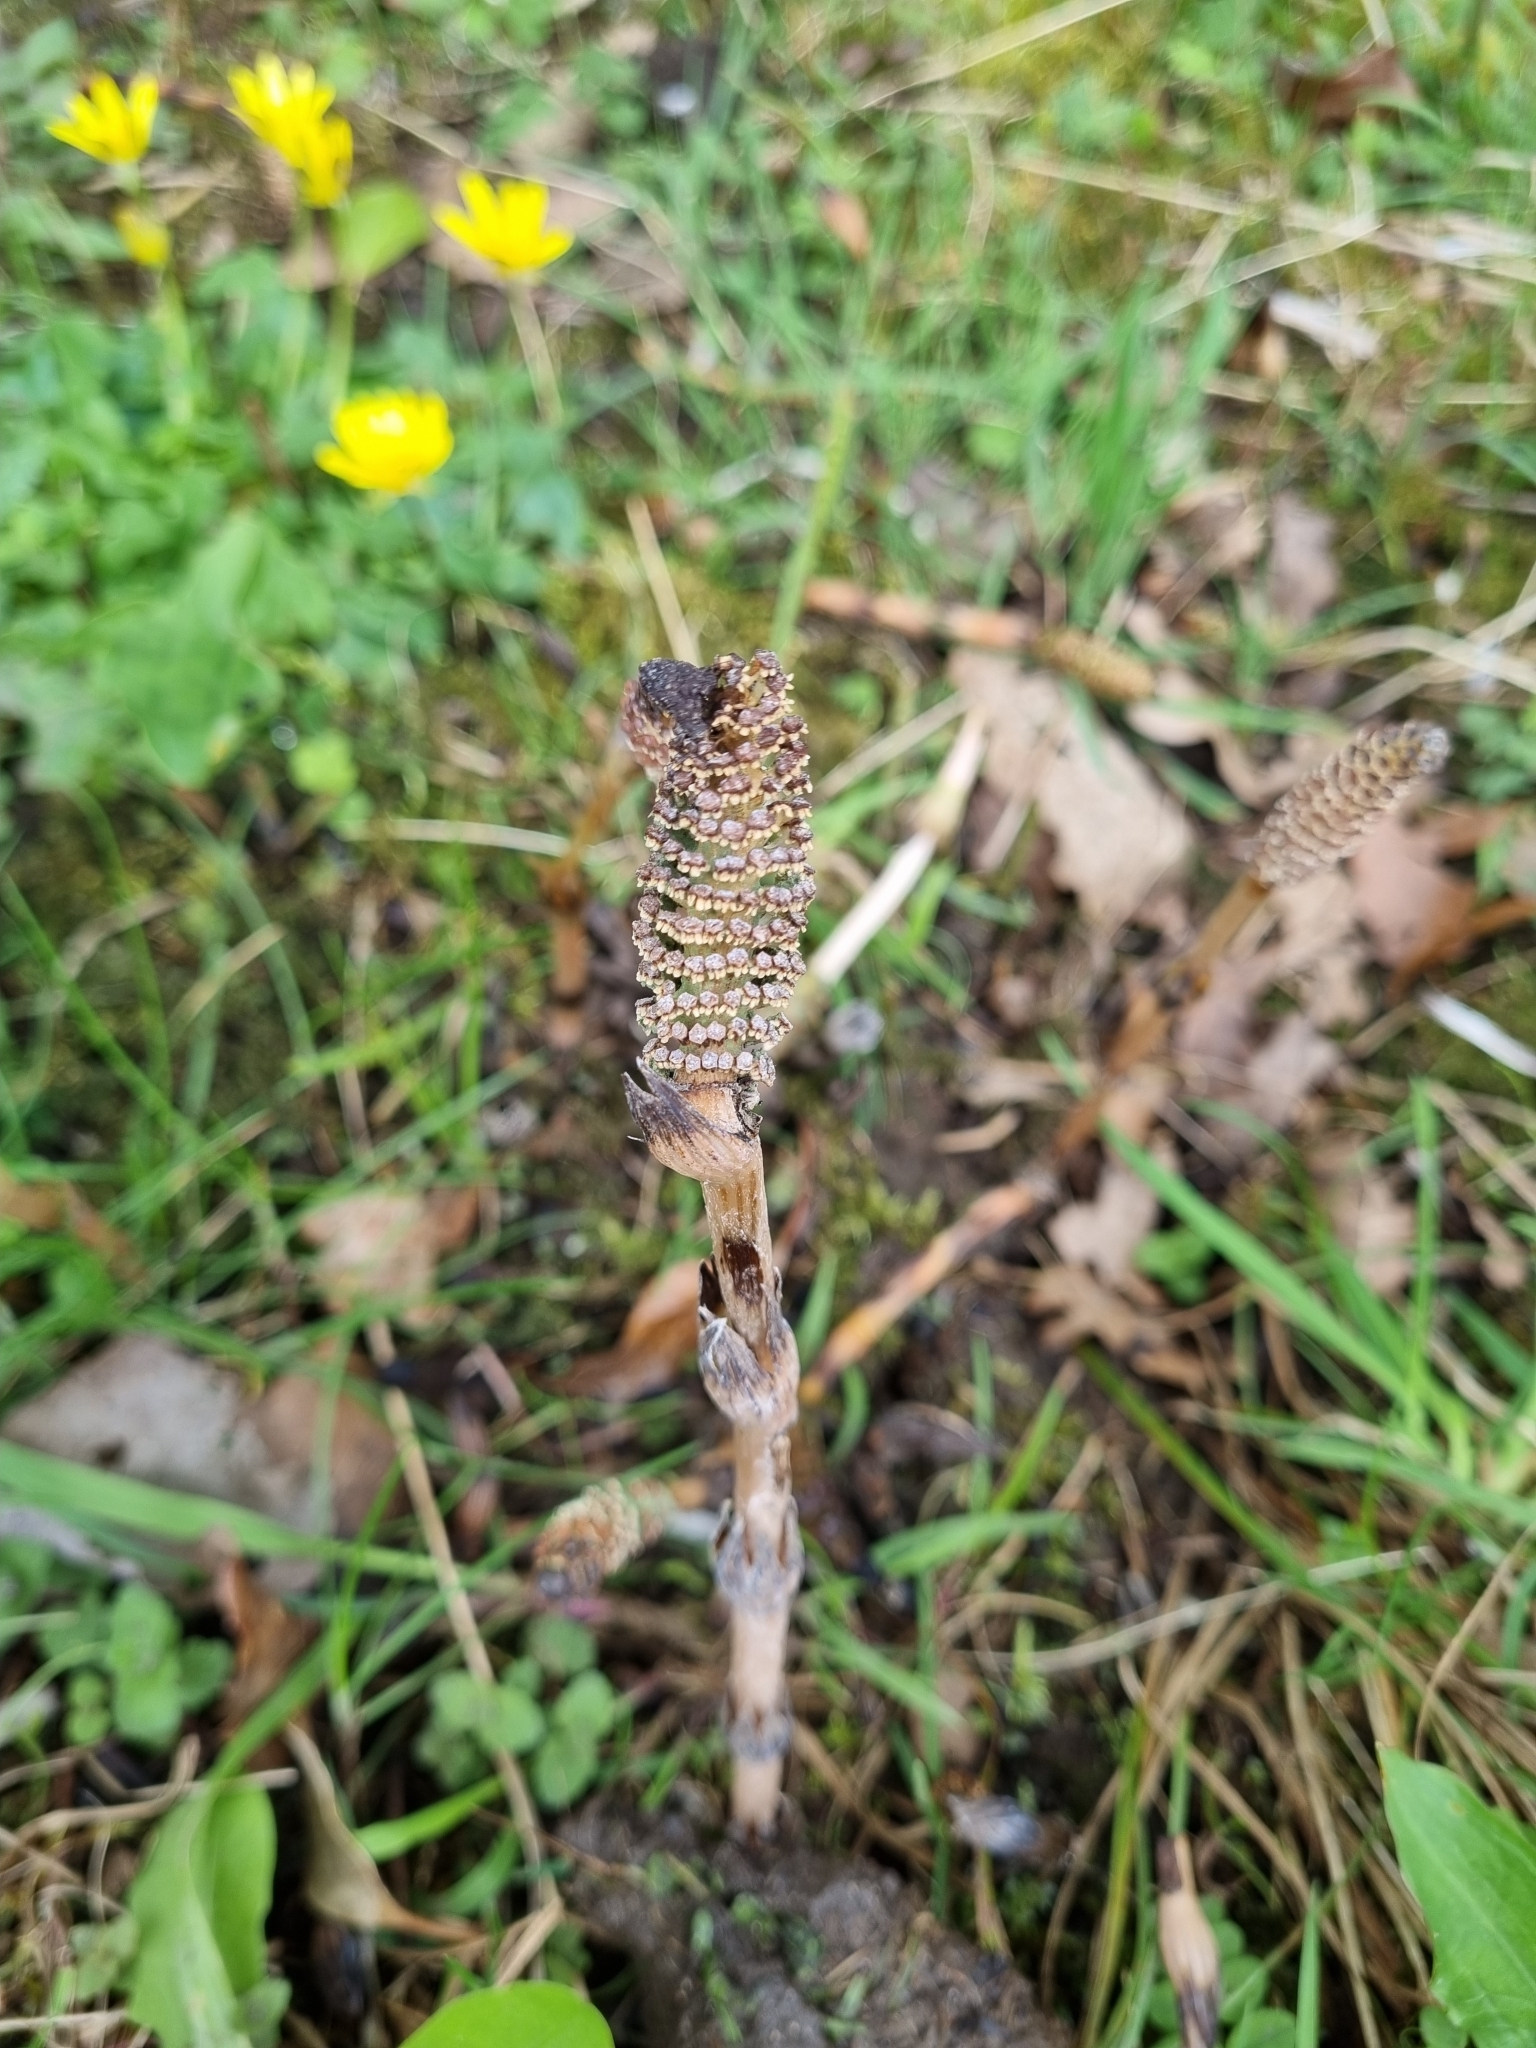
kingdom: Plantae
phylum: Tracheophyta
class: Polypodiopsida
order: Equisetales
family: Equisetaceae
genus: Equisetum
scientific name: Equisetum arvense
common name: Field horsetail
